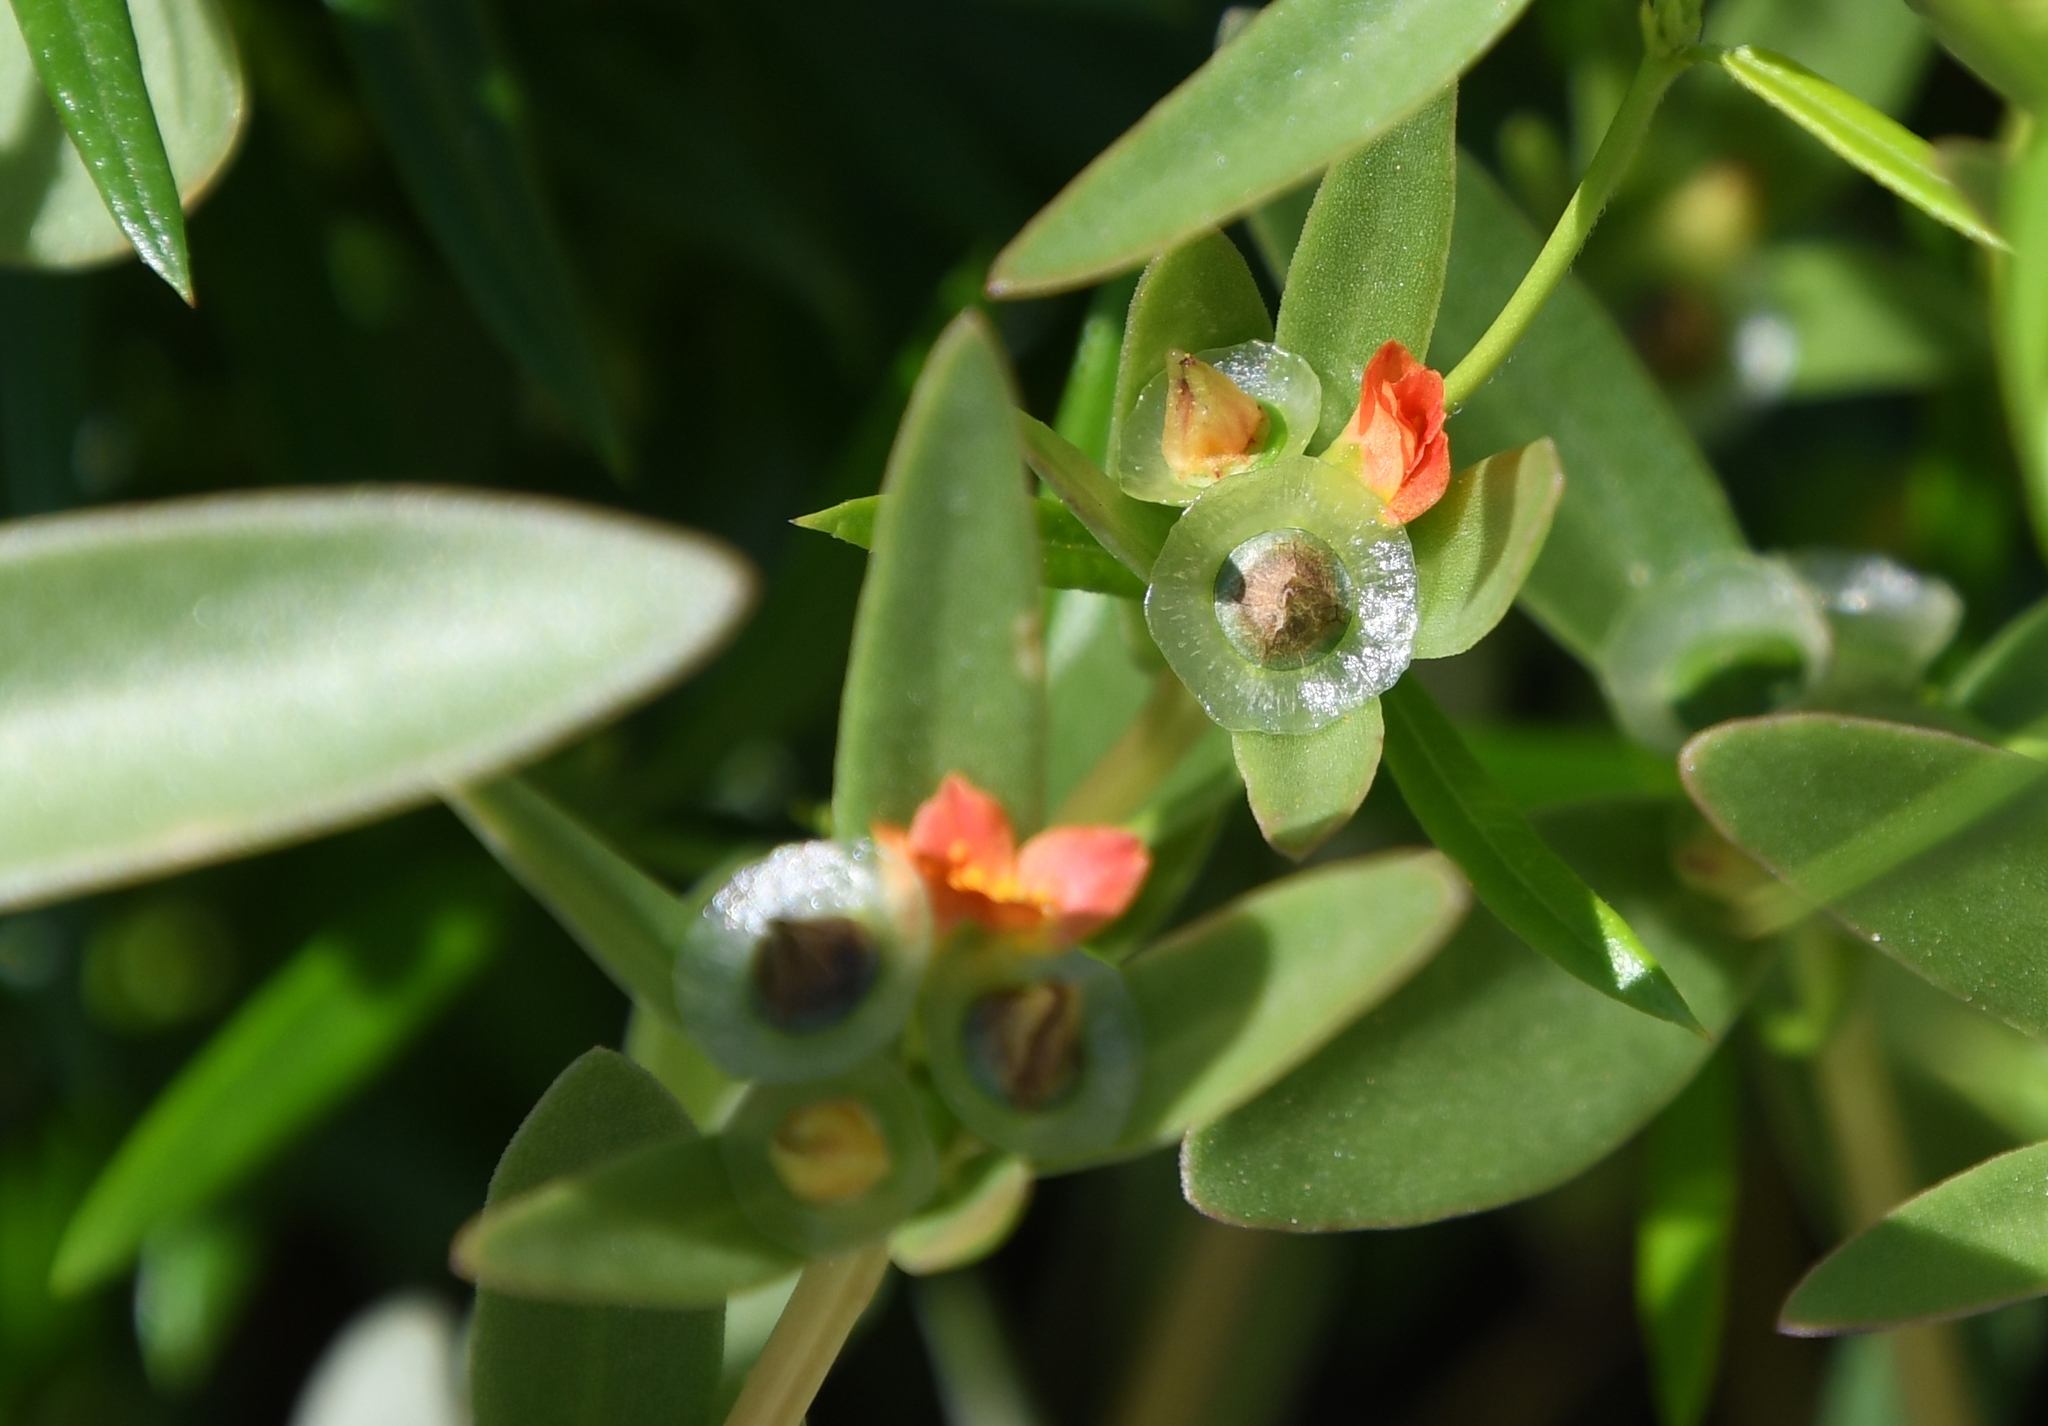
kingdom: Plantae
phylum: Tracheophyta
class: Magnoliopsida
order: Caryophyllales
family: Portulacaceae
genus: Portulaca
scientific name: Portulaca umbraticola
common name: Wingpod purslane
